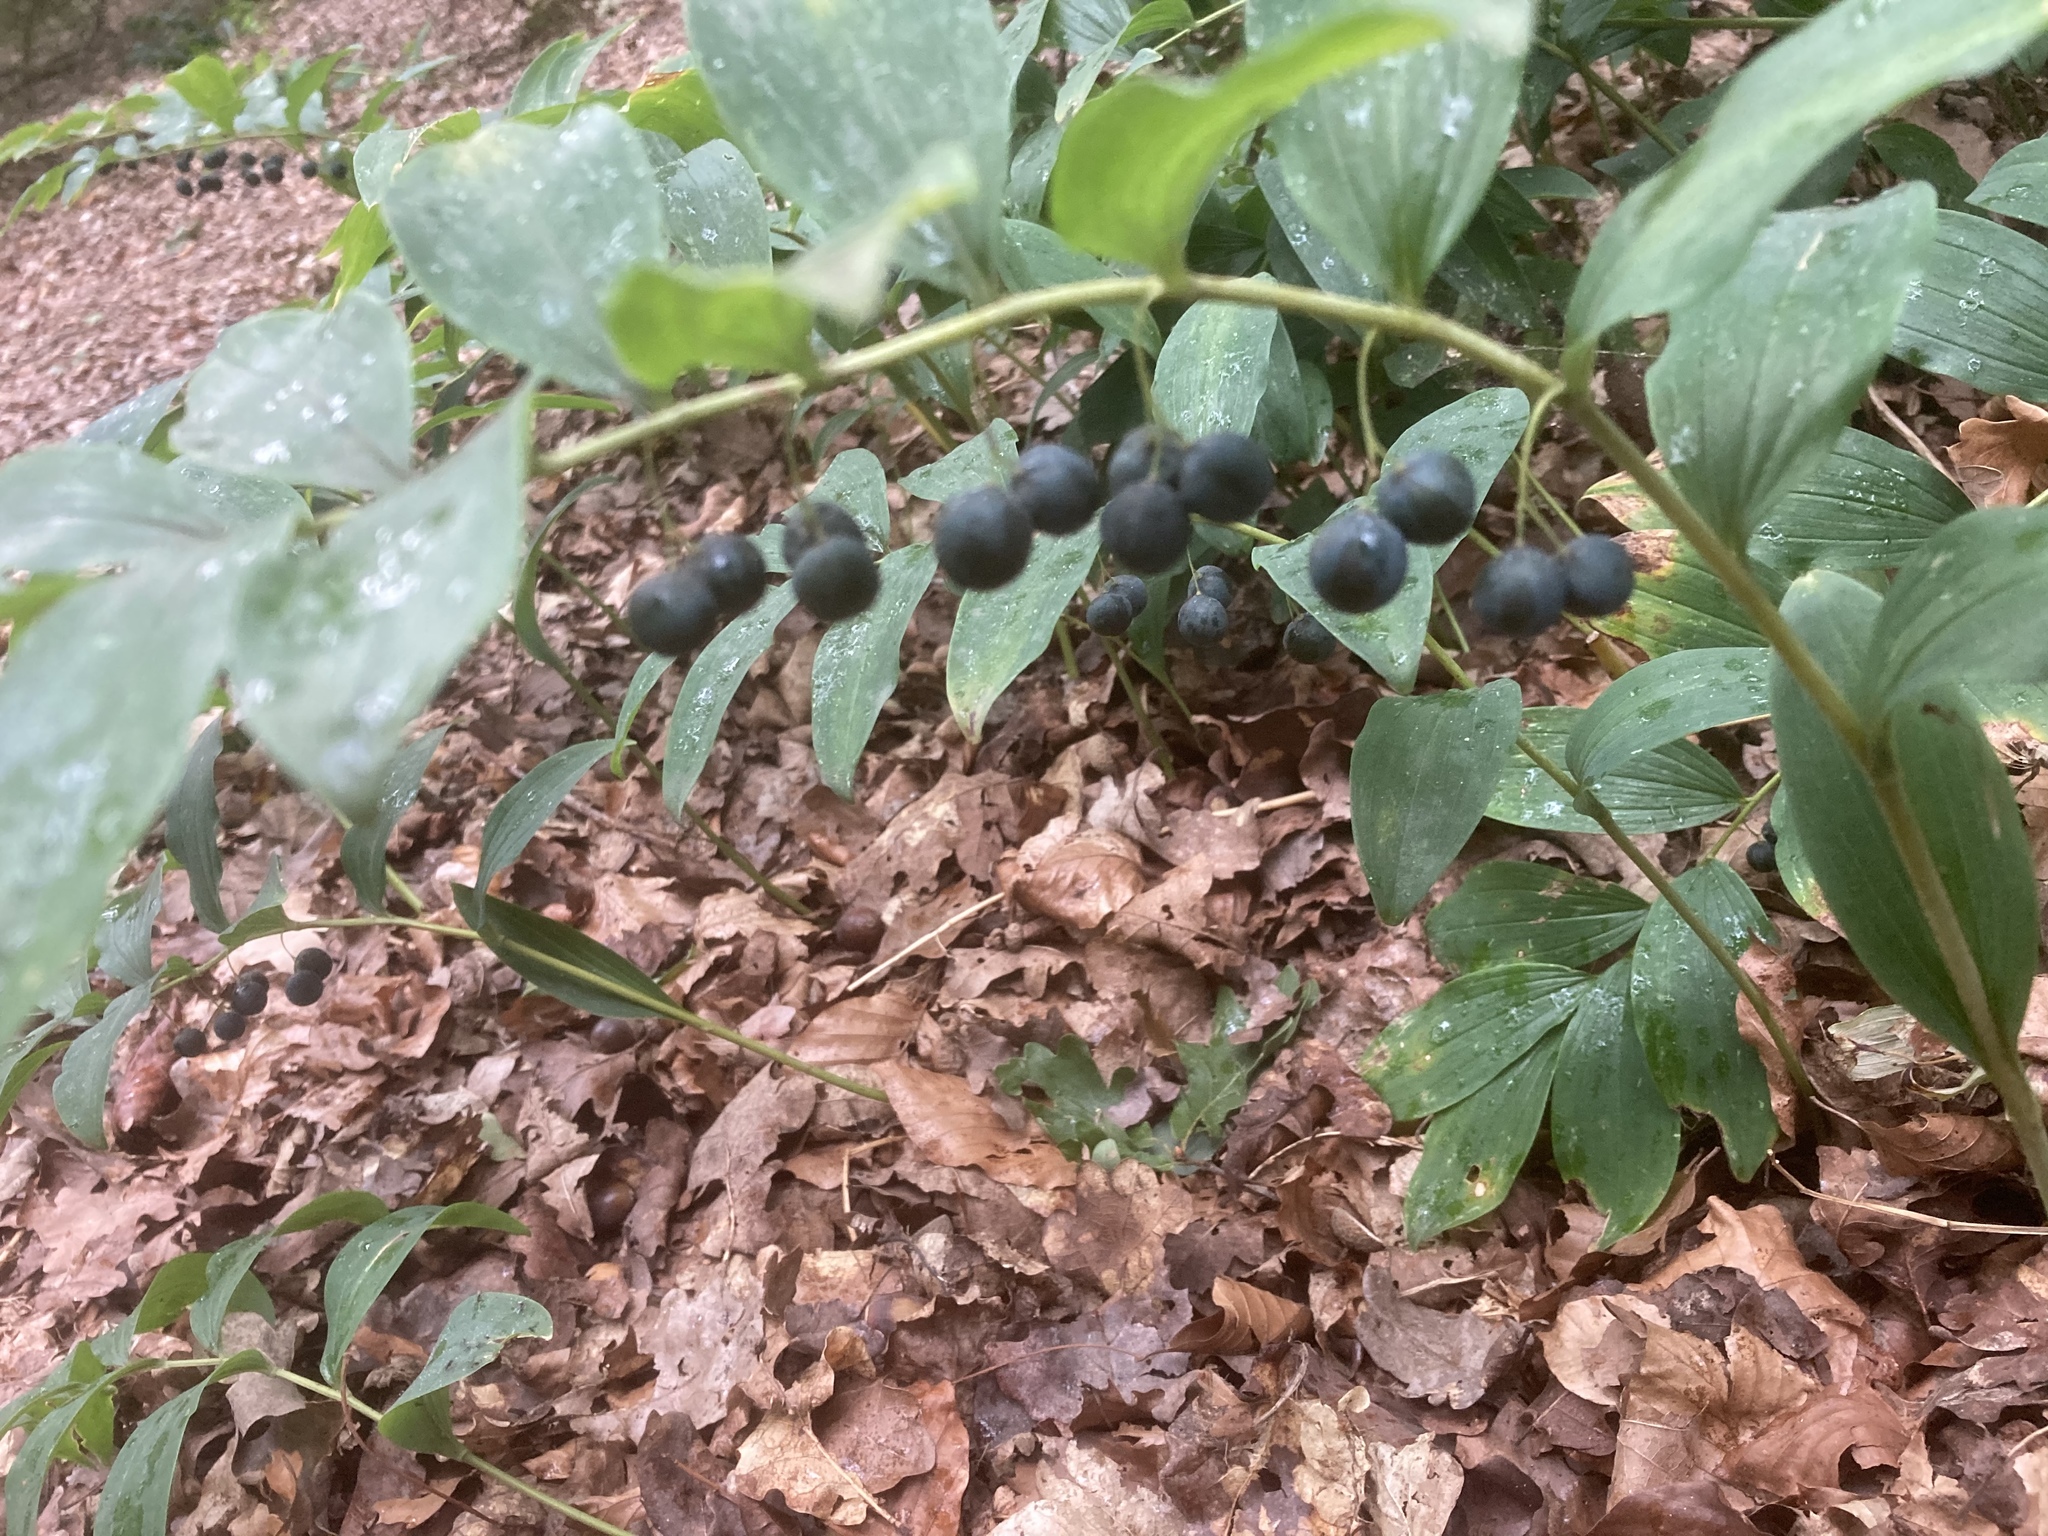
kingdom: Plantae
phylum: Tracheophyta
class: Liliopsida
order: Asparagales
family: Asparagaceae
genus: Polygonatum
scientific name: Polygonatum multiflorum
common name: Solomon's-seal
